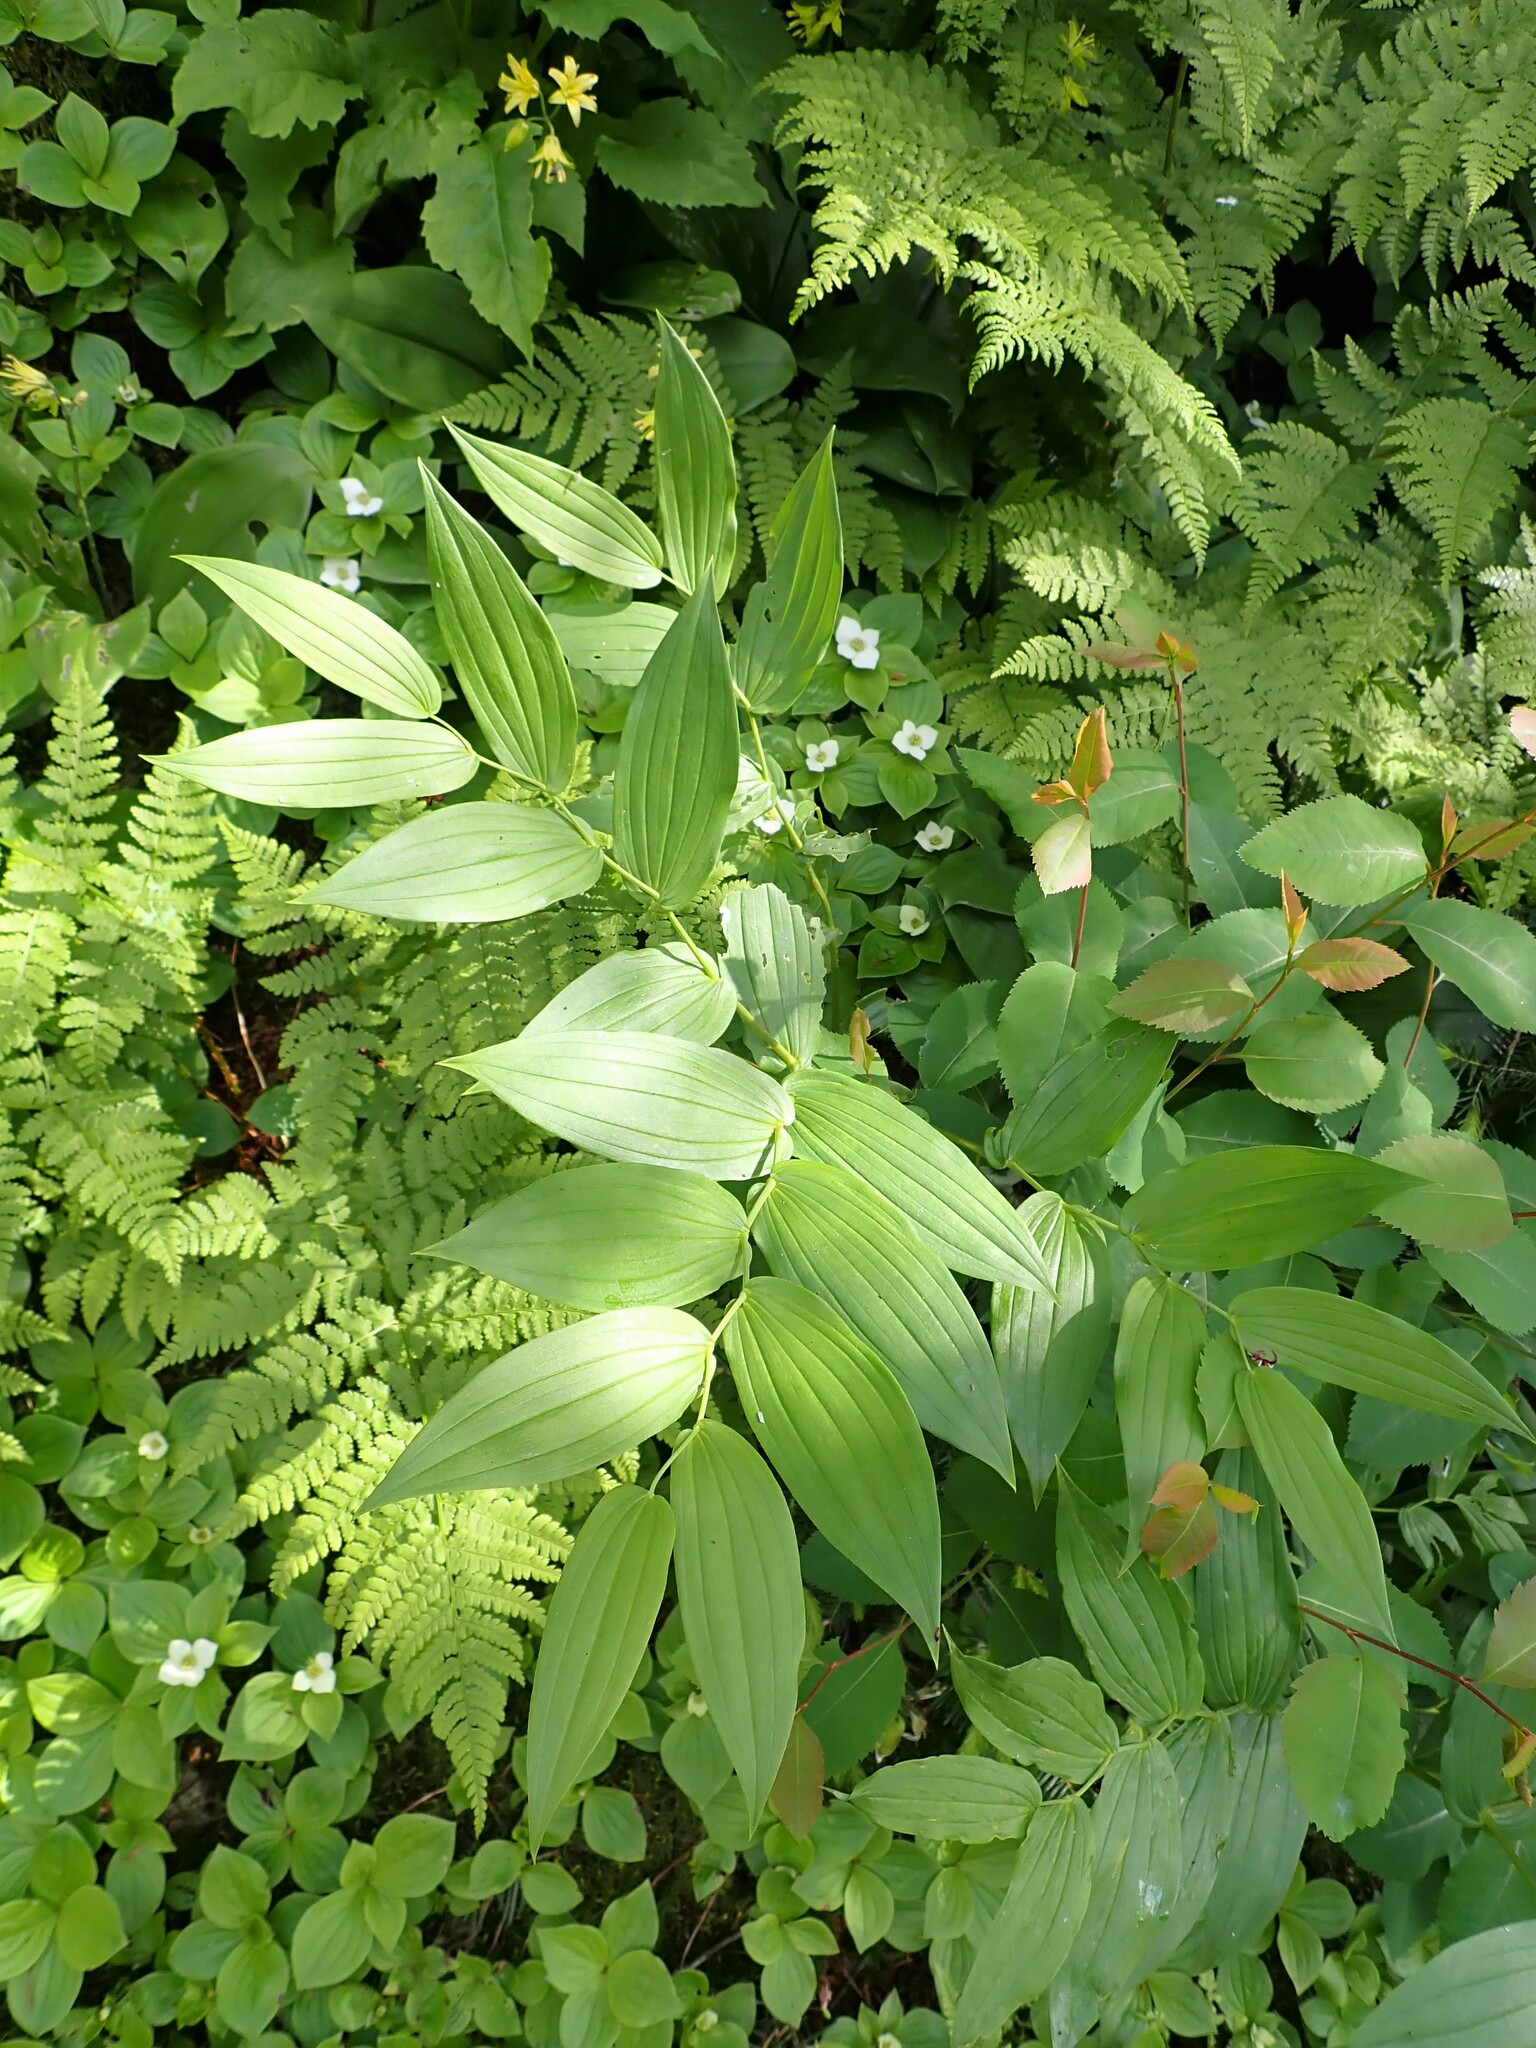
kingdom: Plantae
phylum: Tracheophyta
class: Liliopsida
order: Liliales
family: Liliaceae
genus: Streptopus
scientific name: Streptopus oreopolus
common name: Hybrid twisted-stalk
